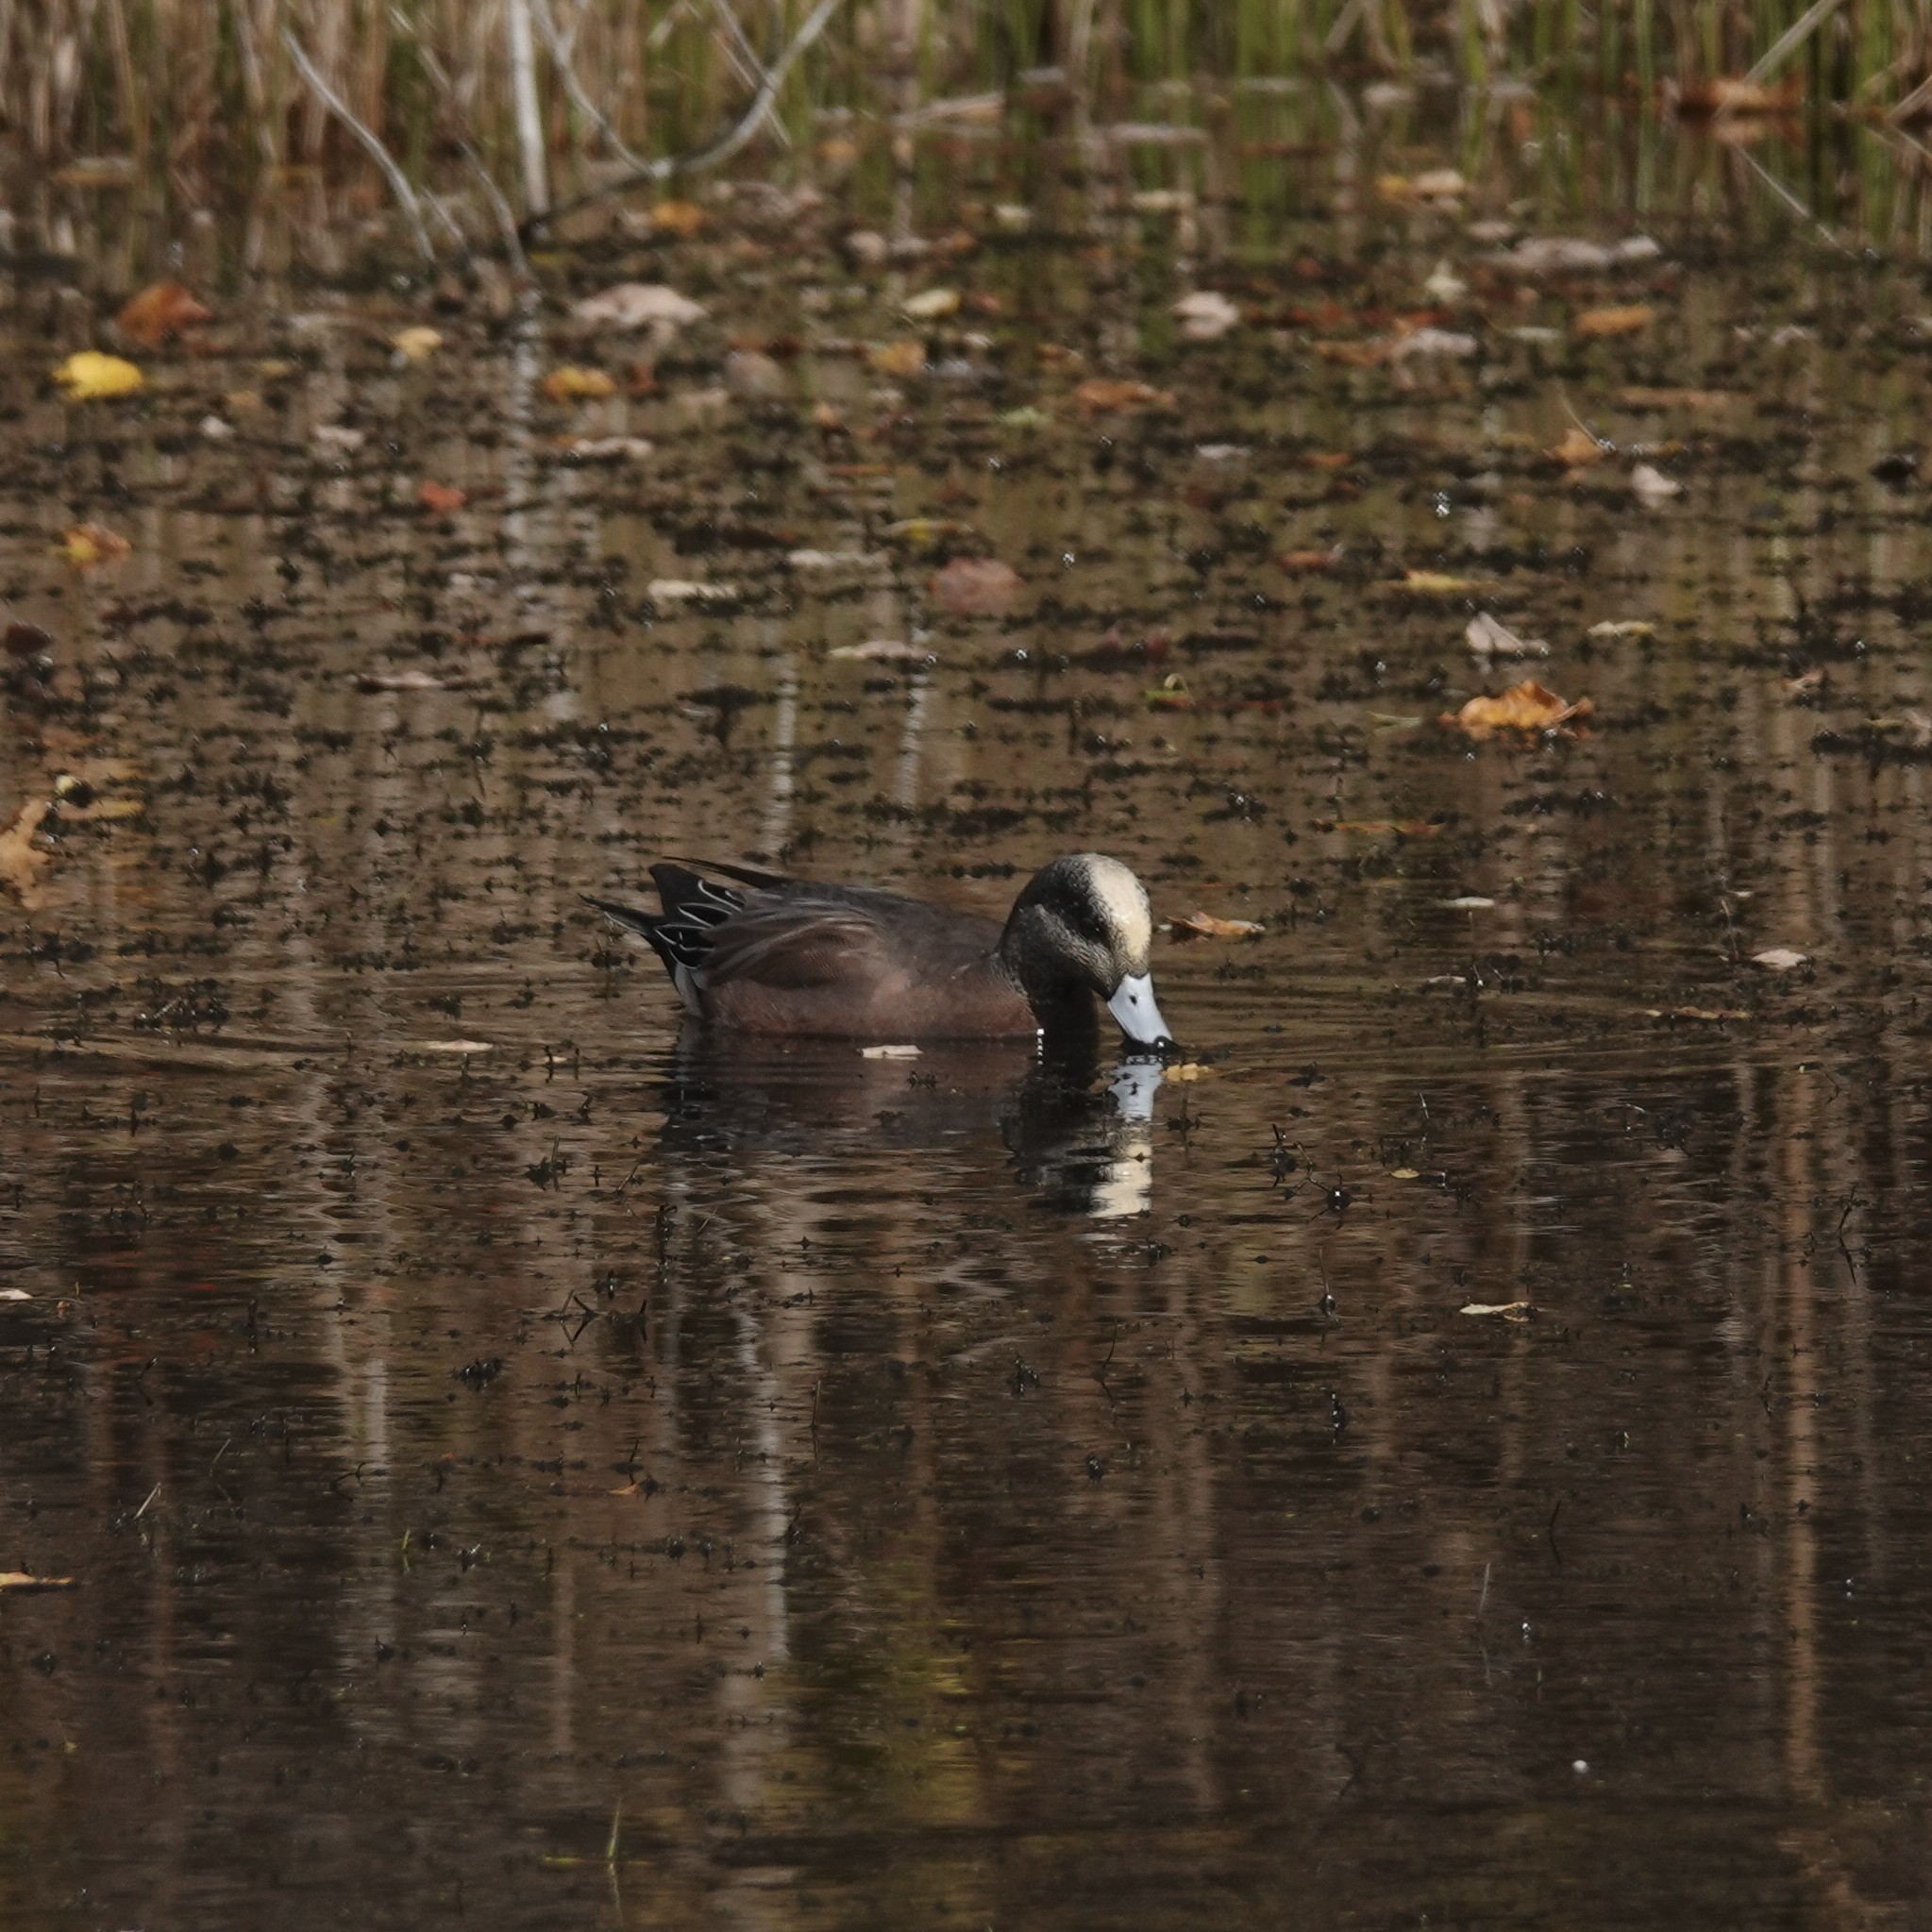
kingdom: Animalia
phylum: Chordata
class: Aves
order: Anseriformes
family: Anatidae
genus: Mareca
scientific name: Mareca americana
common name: American wigeon
